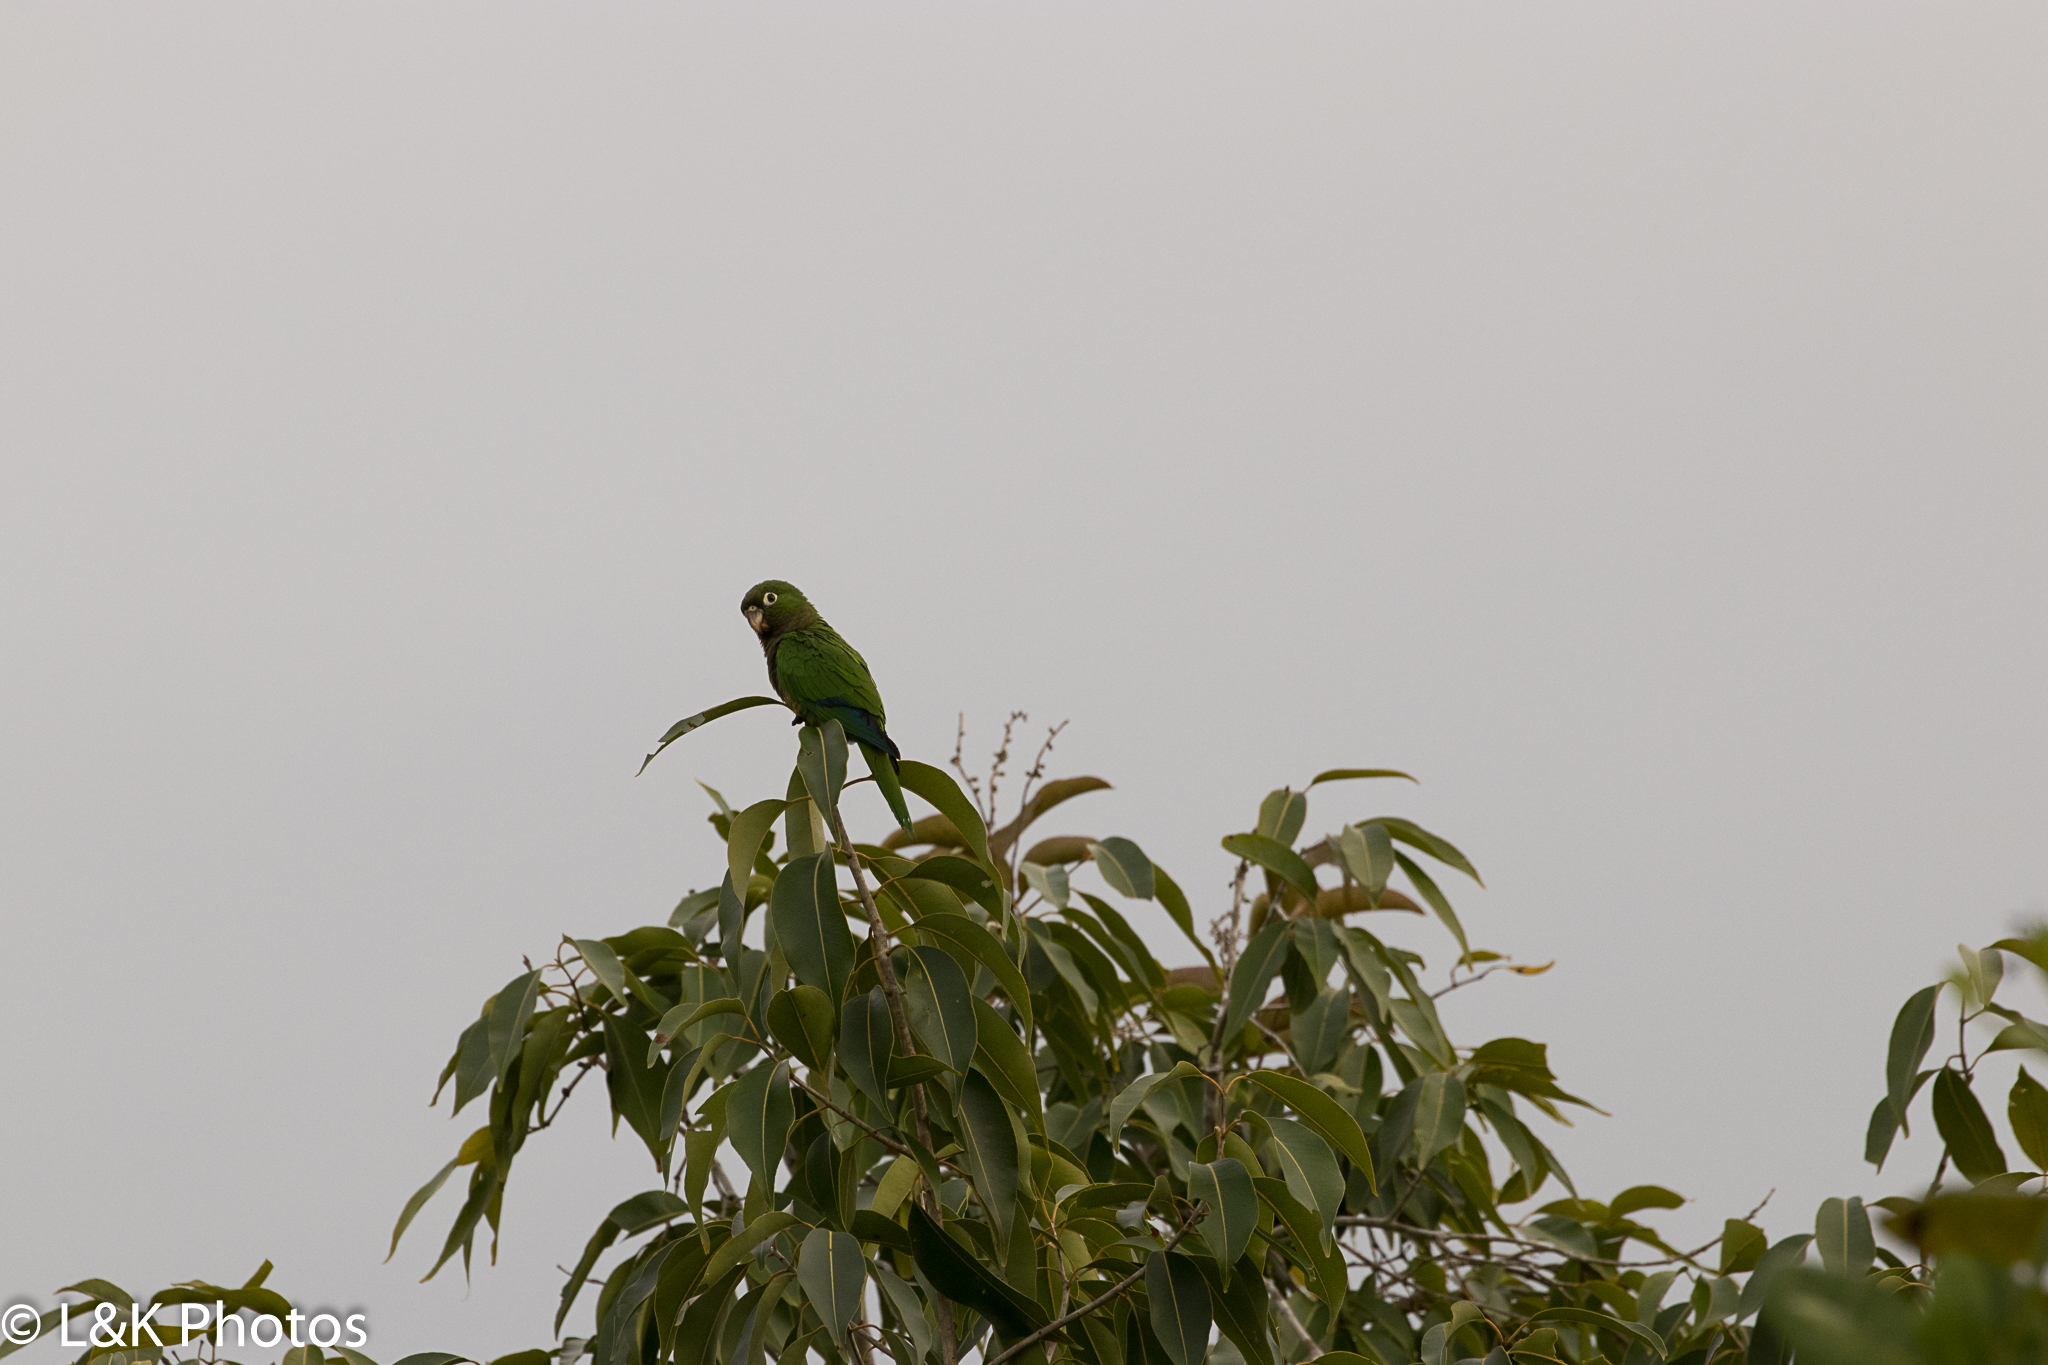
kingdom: Animalia
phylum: Chordata
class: Aves
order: Psittaciformes
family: Psittacidae
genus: Aratinga
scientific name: Aratinga nana
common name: Olive-throated parakeet
